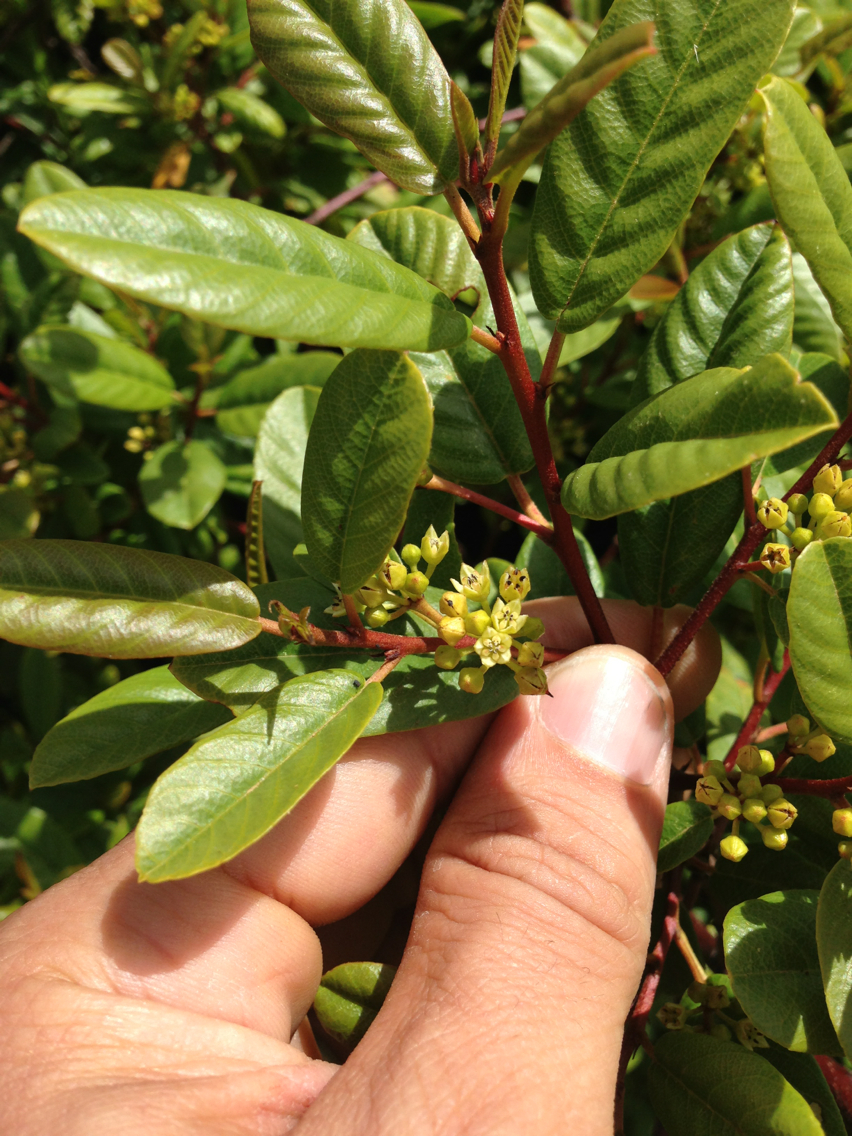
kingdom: Plantae
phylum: Tracheophyta
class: Magnoliopsida
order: Rosales
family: Rhamnaceae
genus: Frangula
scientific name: Frangula californica
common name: California buckthorn
